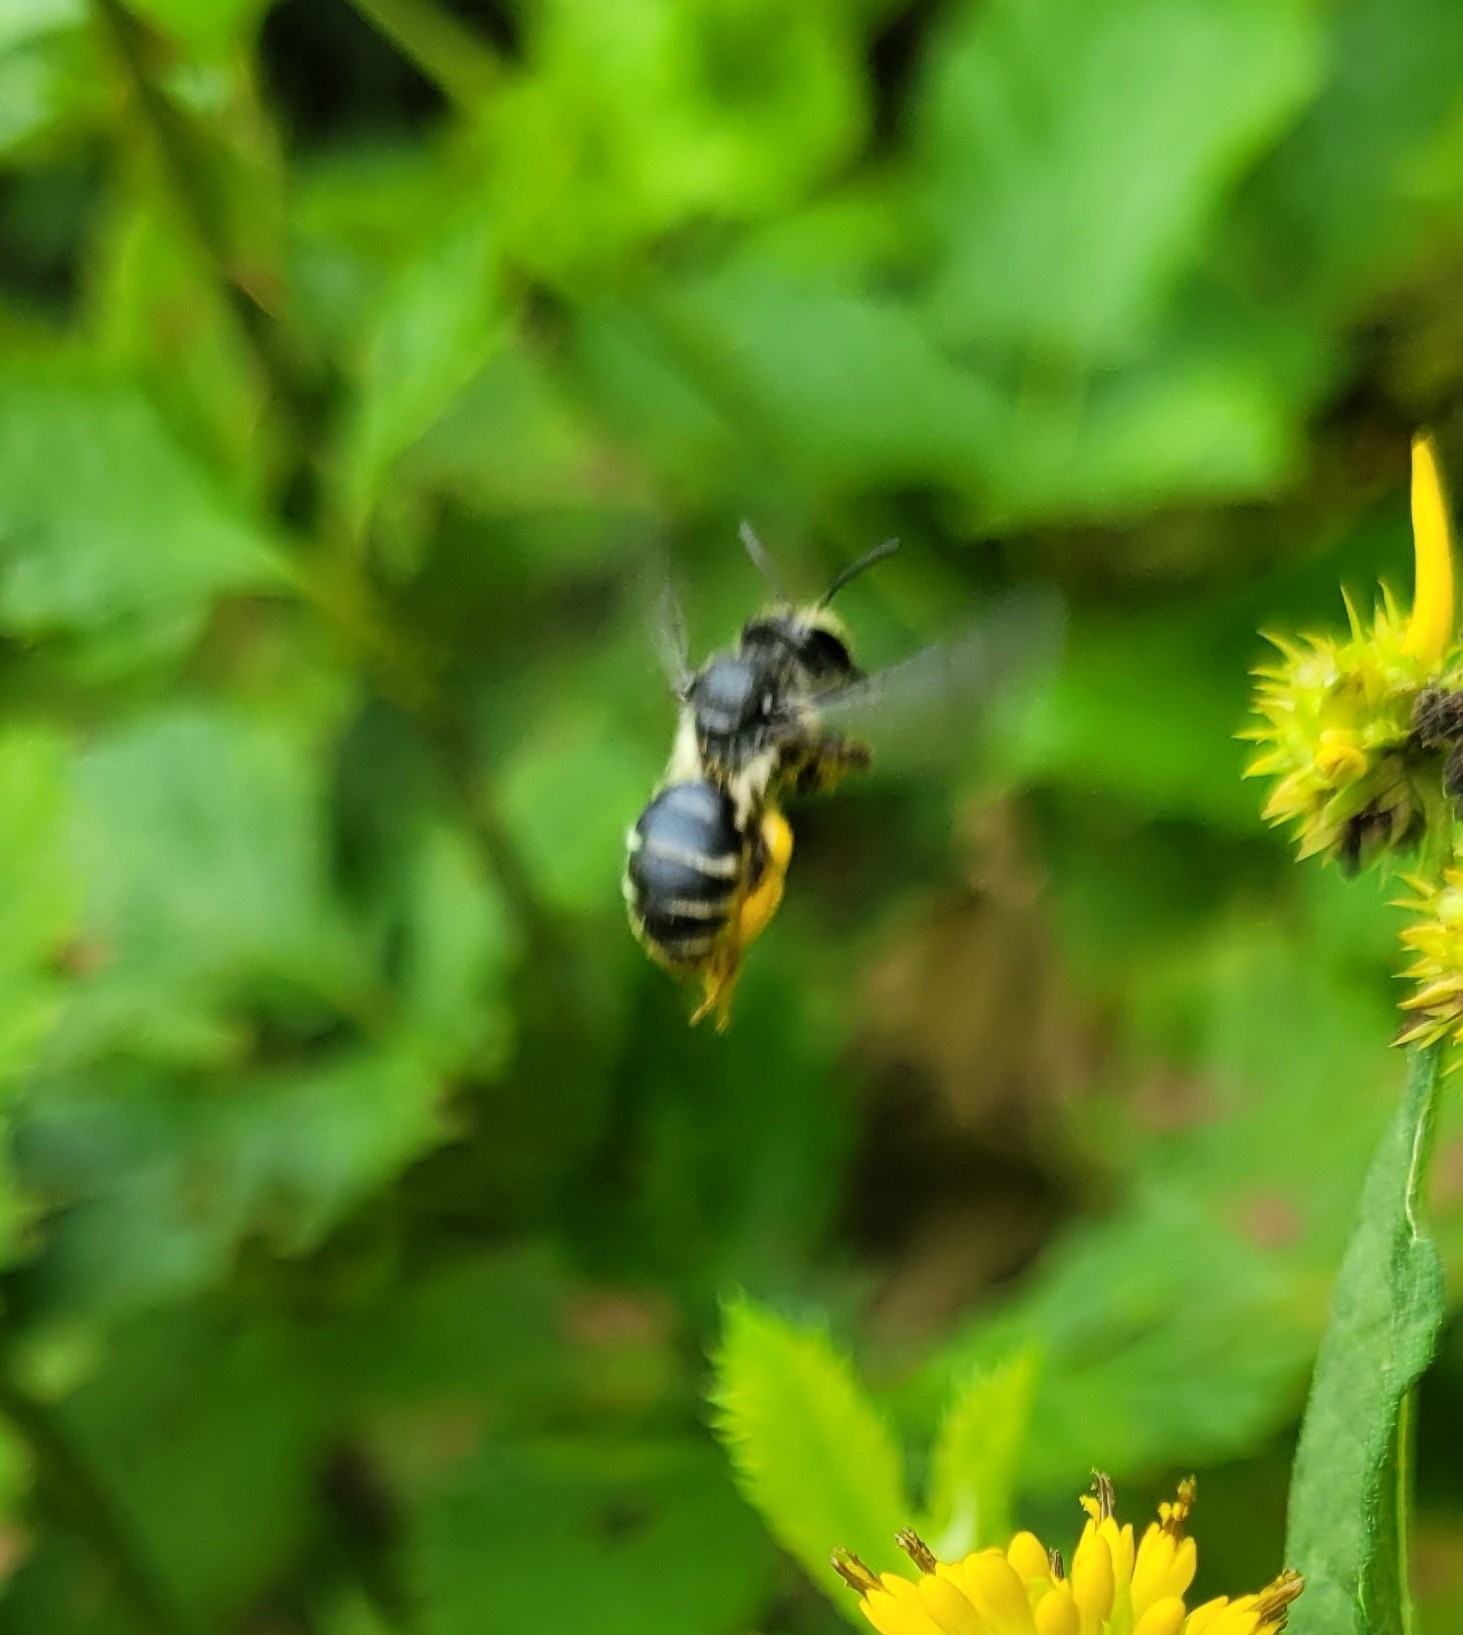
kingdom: Animalia
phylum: Arthropoda
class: Insecta
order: Hymenoptera
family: Andrenidae
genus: Andrena
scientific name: Andrena aliciae
